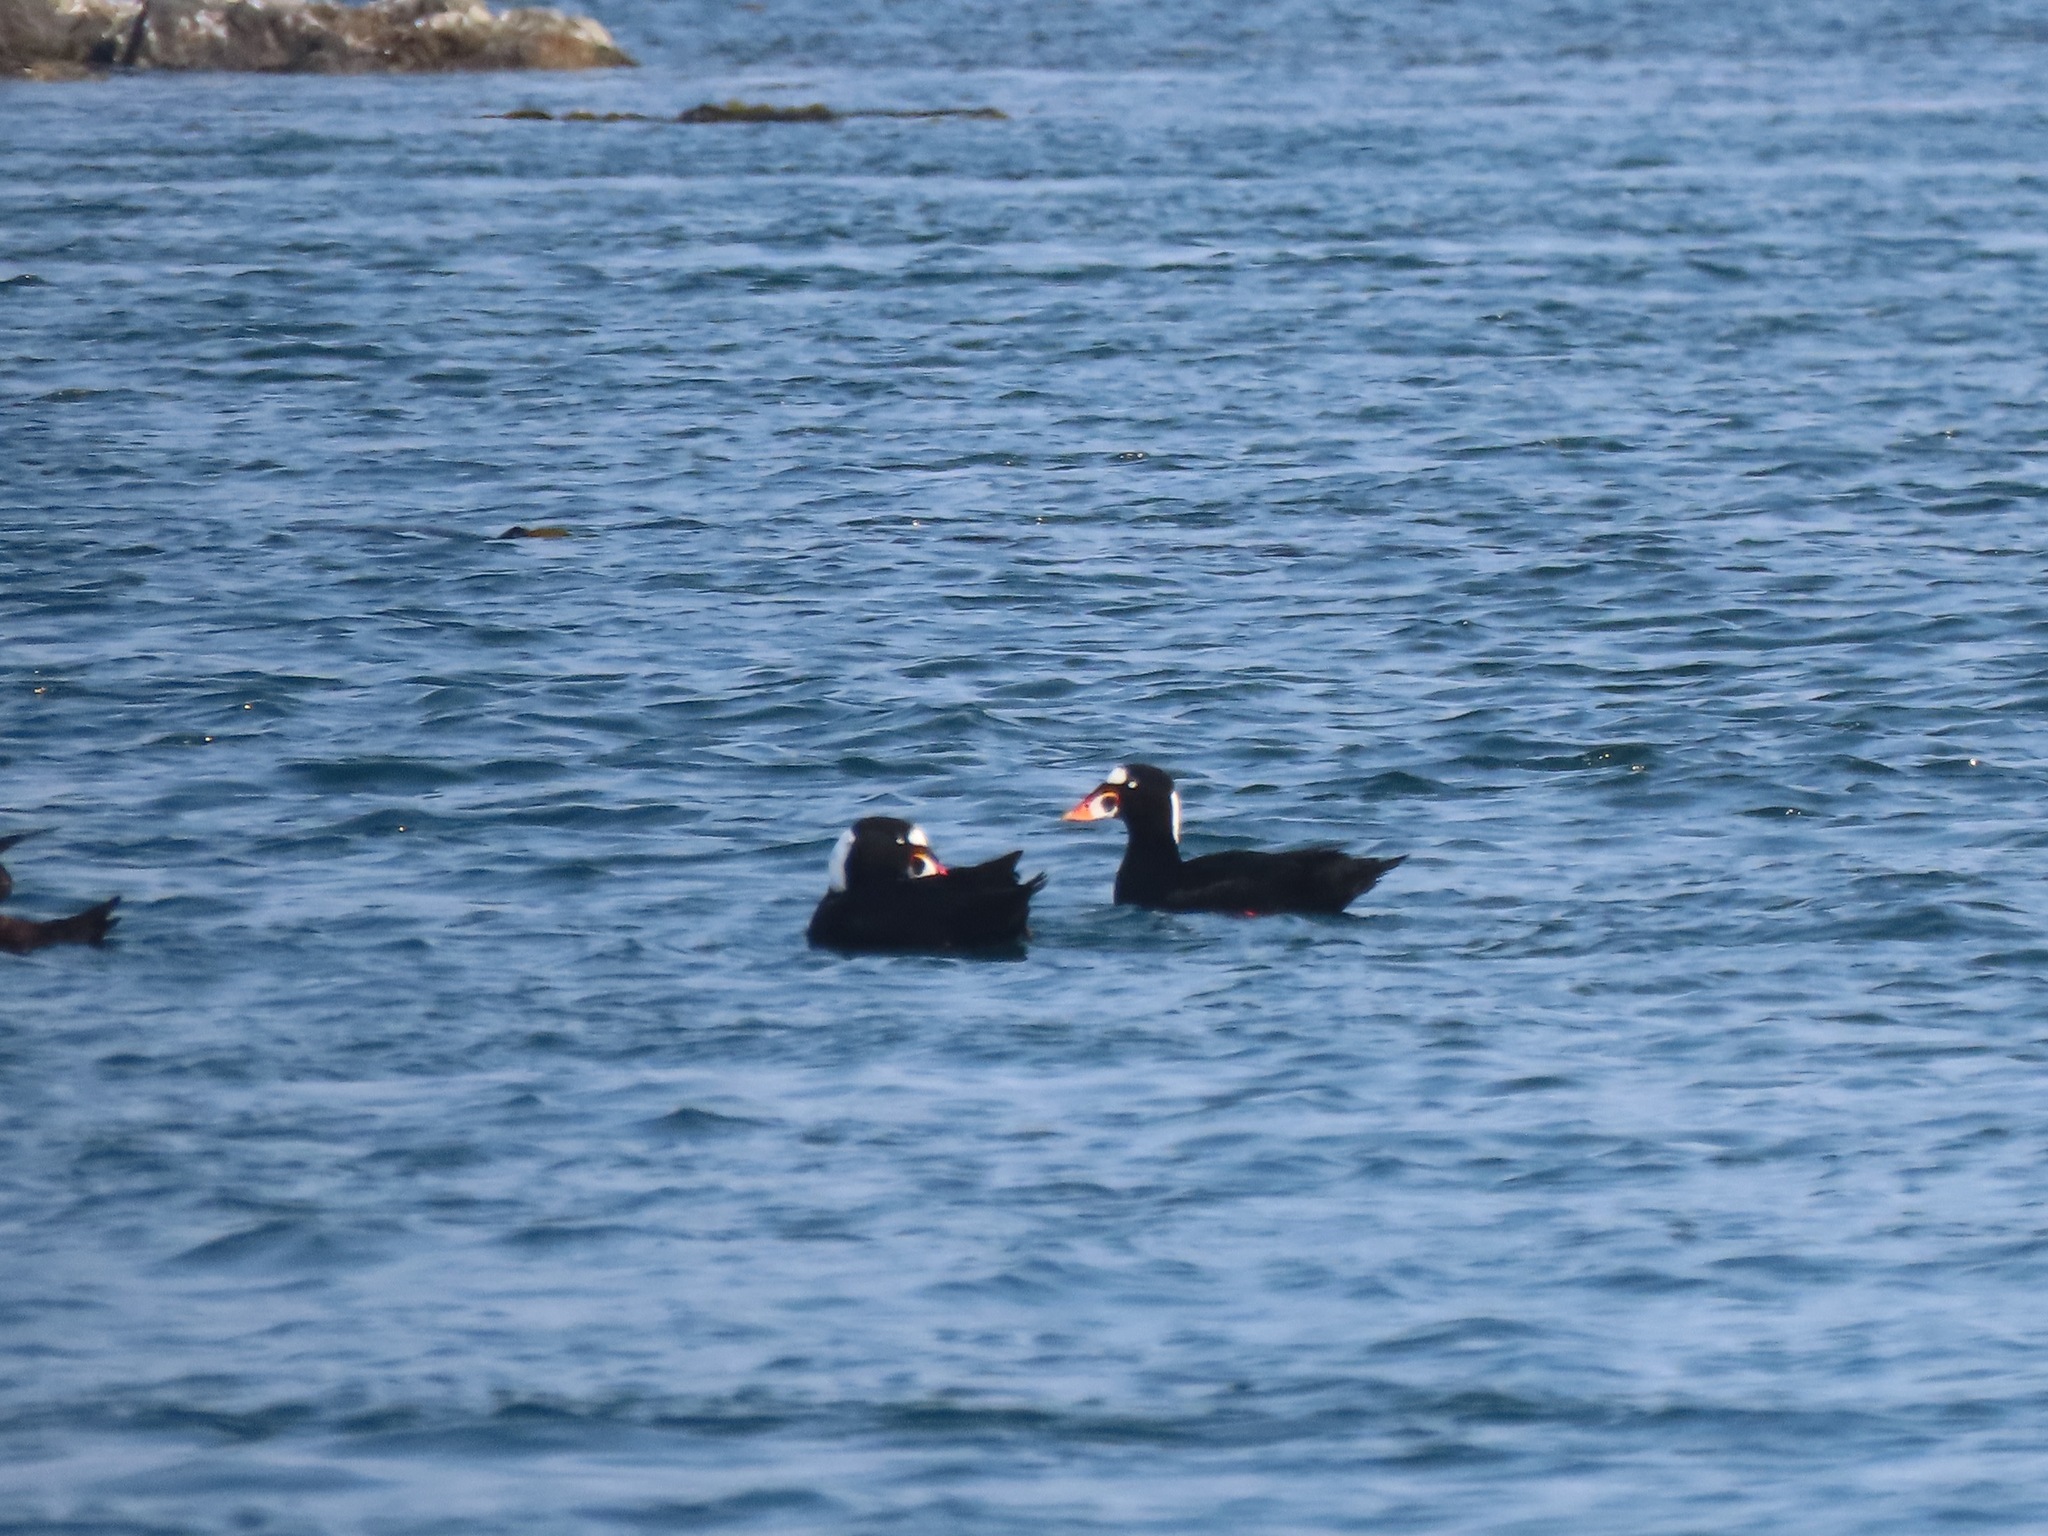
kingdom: Animalia
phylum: Chordata
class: Aves
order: Anseriformes
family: Anatidae
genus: Melanitta
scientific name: Melanitta perspicillata
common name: Surf scoter
